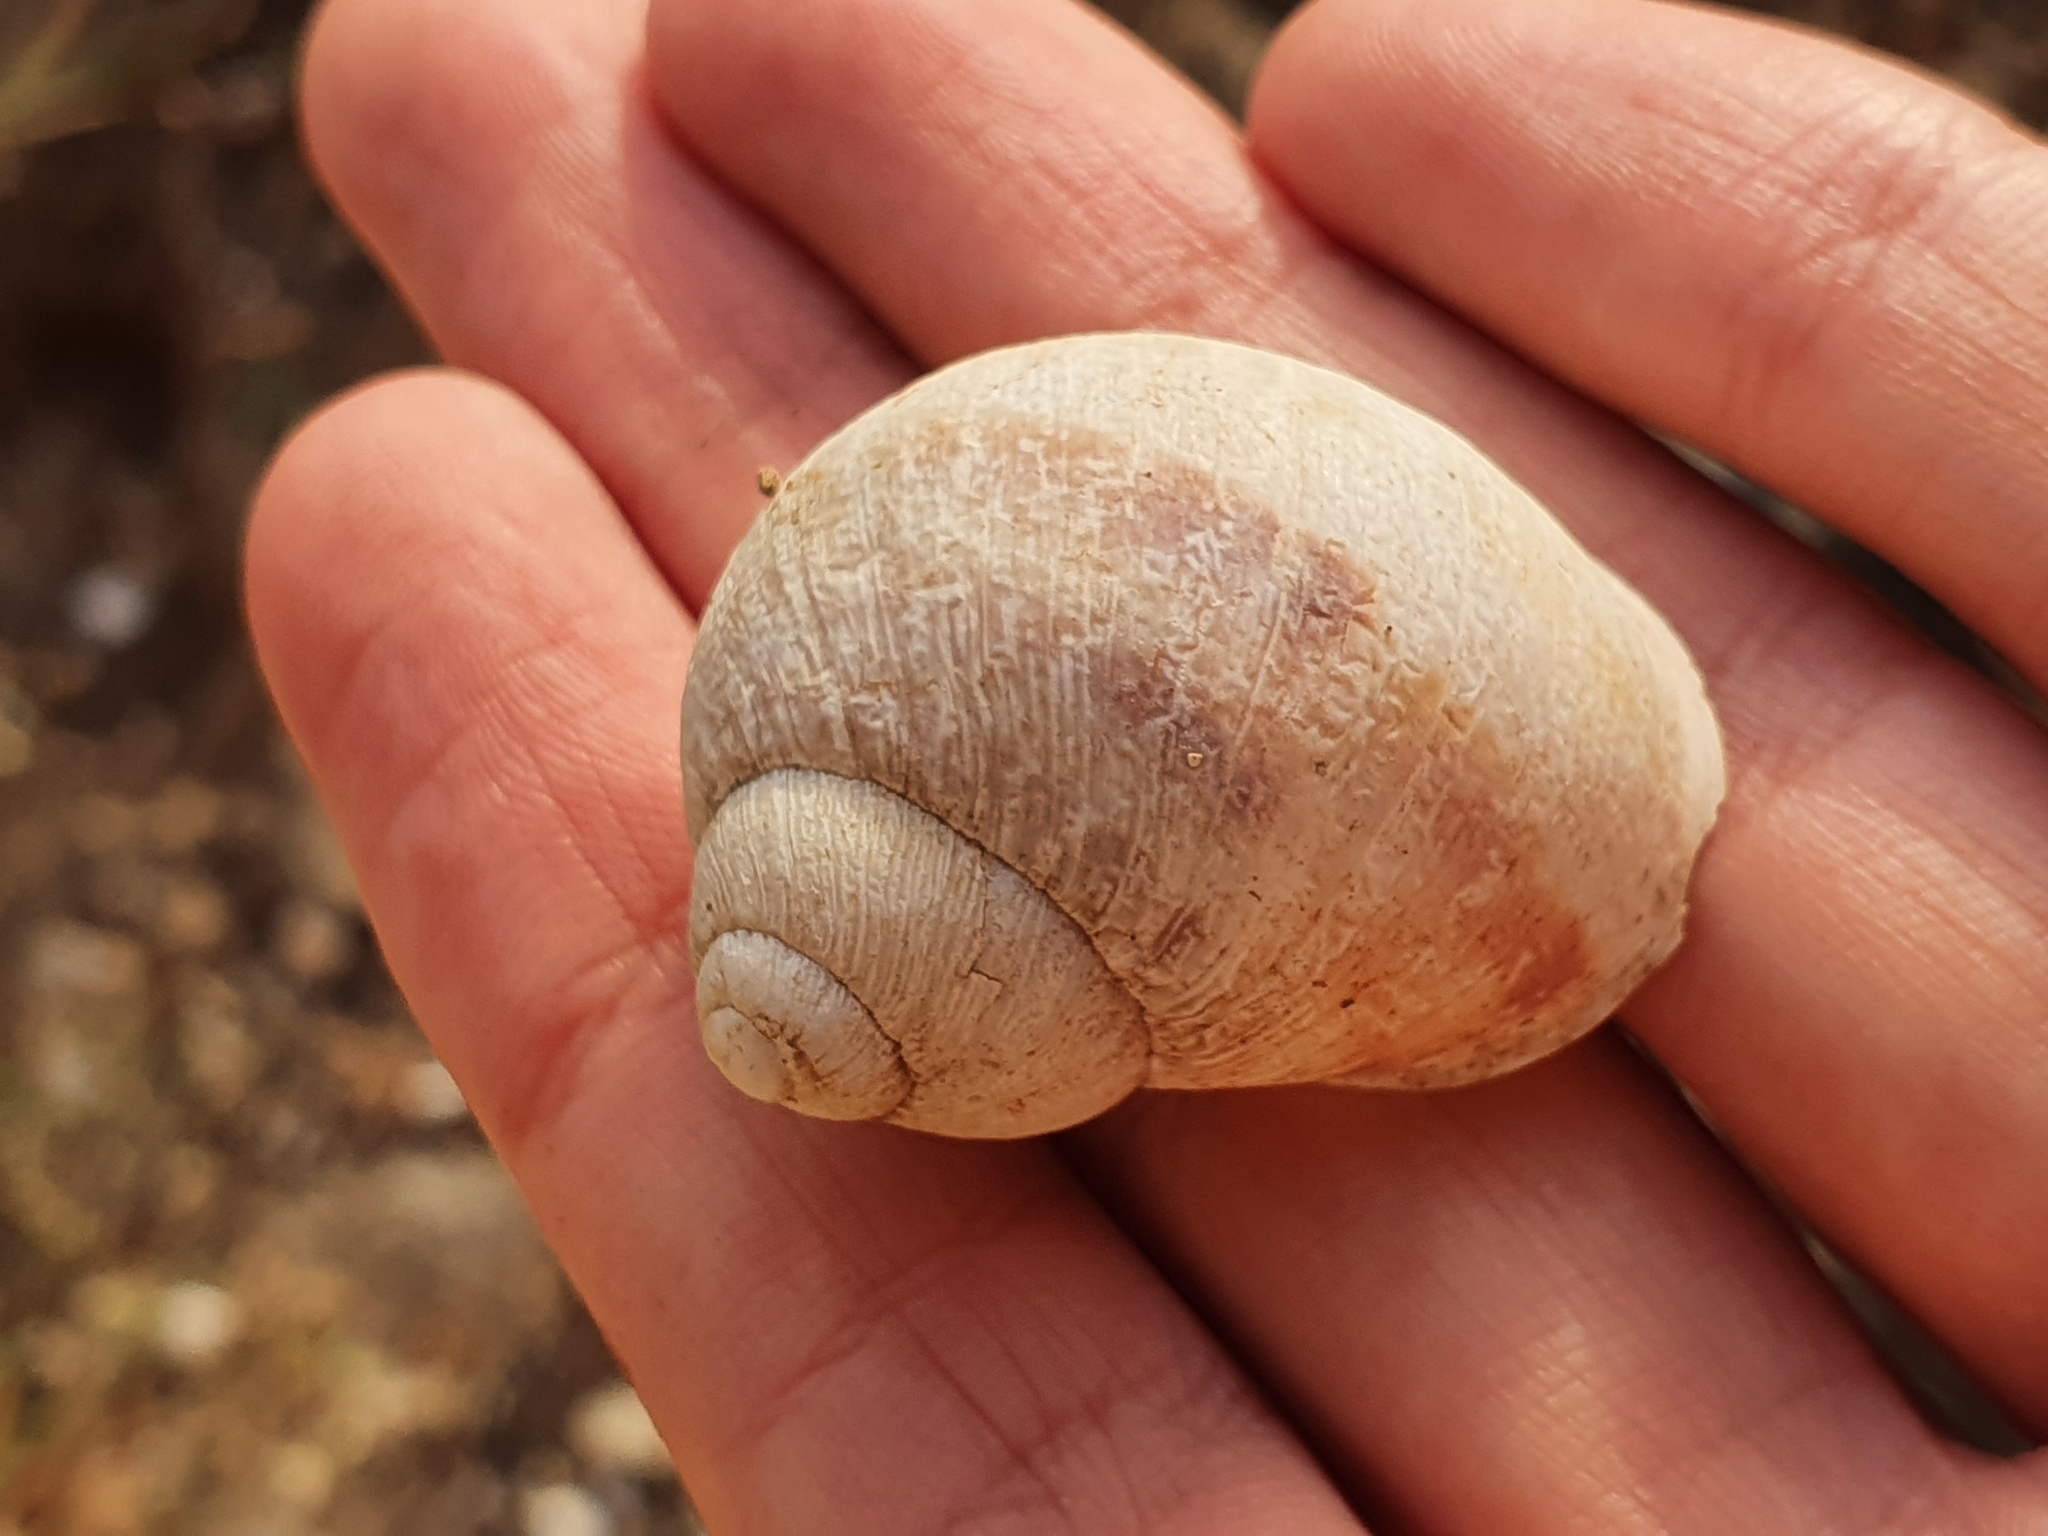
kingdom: Animalia
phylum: Mollusca
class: Gastropoda
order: Stylommatophora
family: Helicidae
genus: Cornu
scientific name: Cornu aspersum
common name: Brown garden snail
